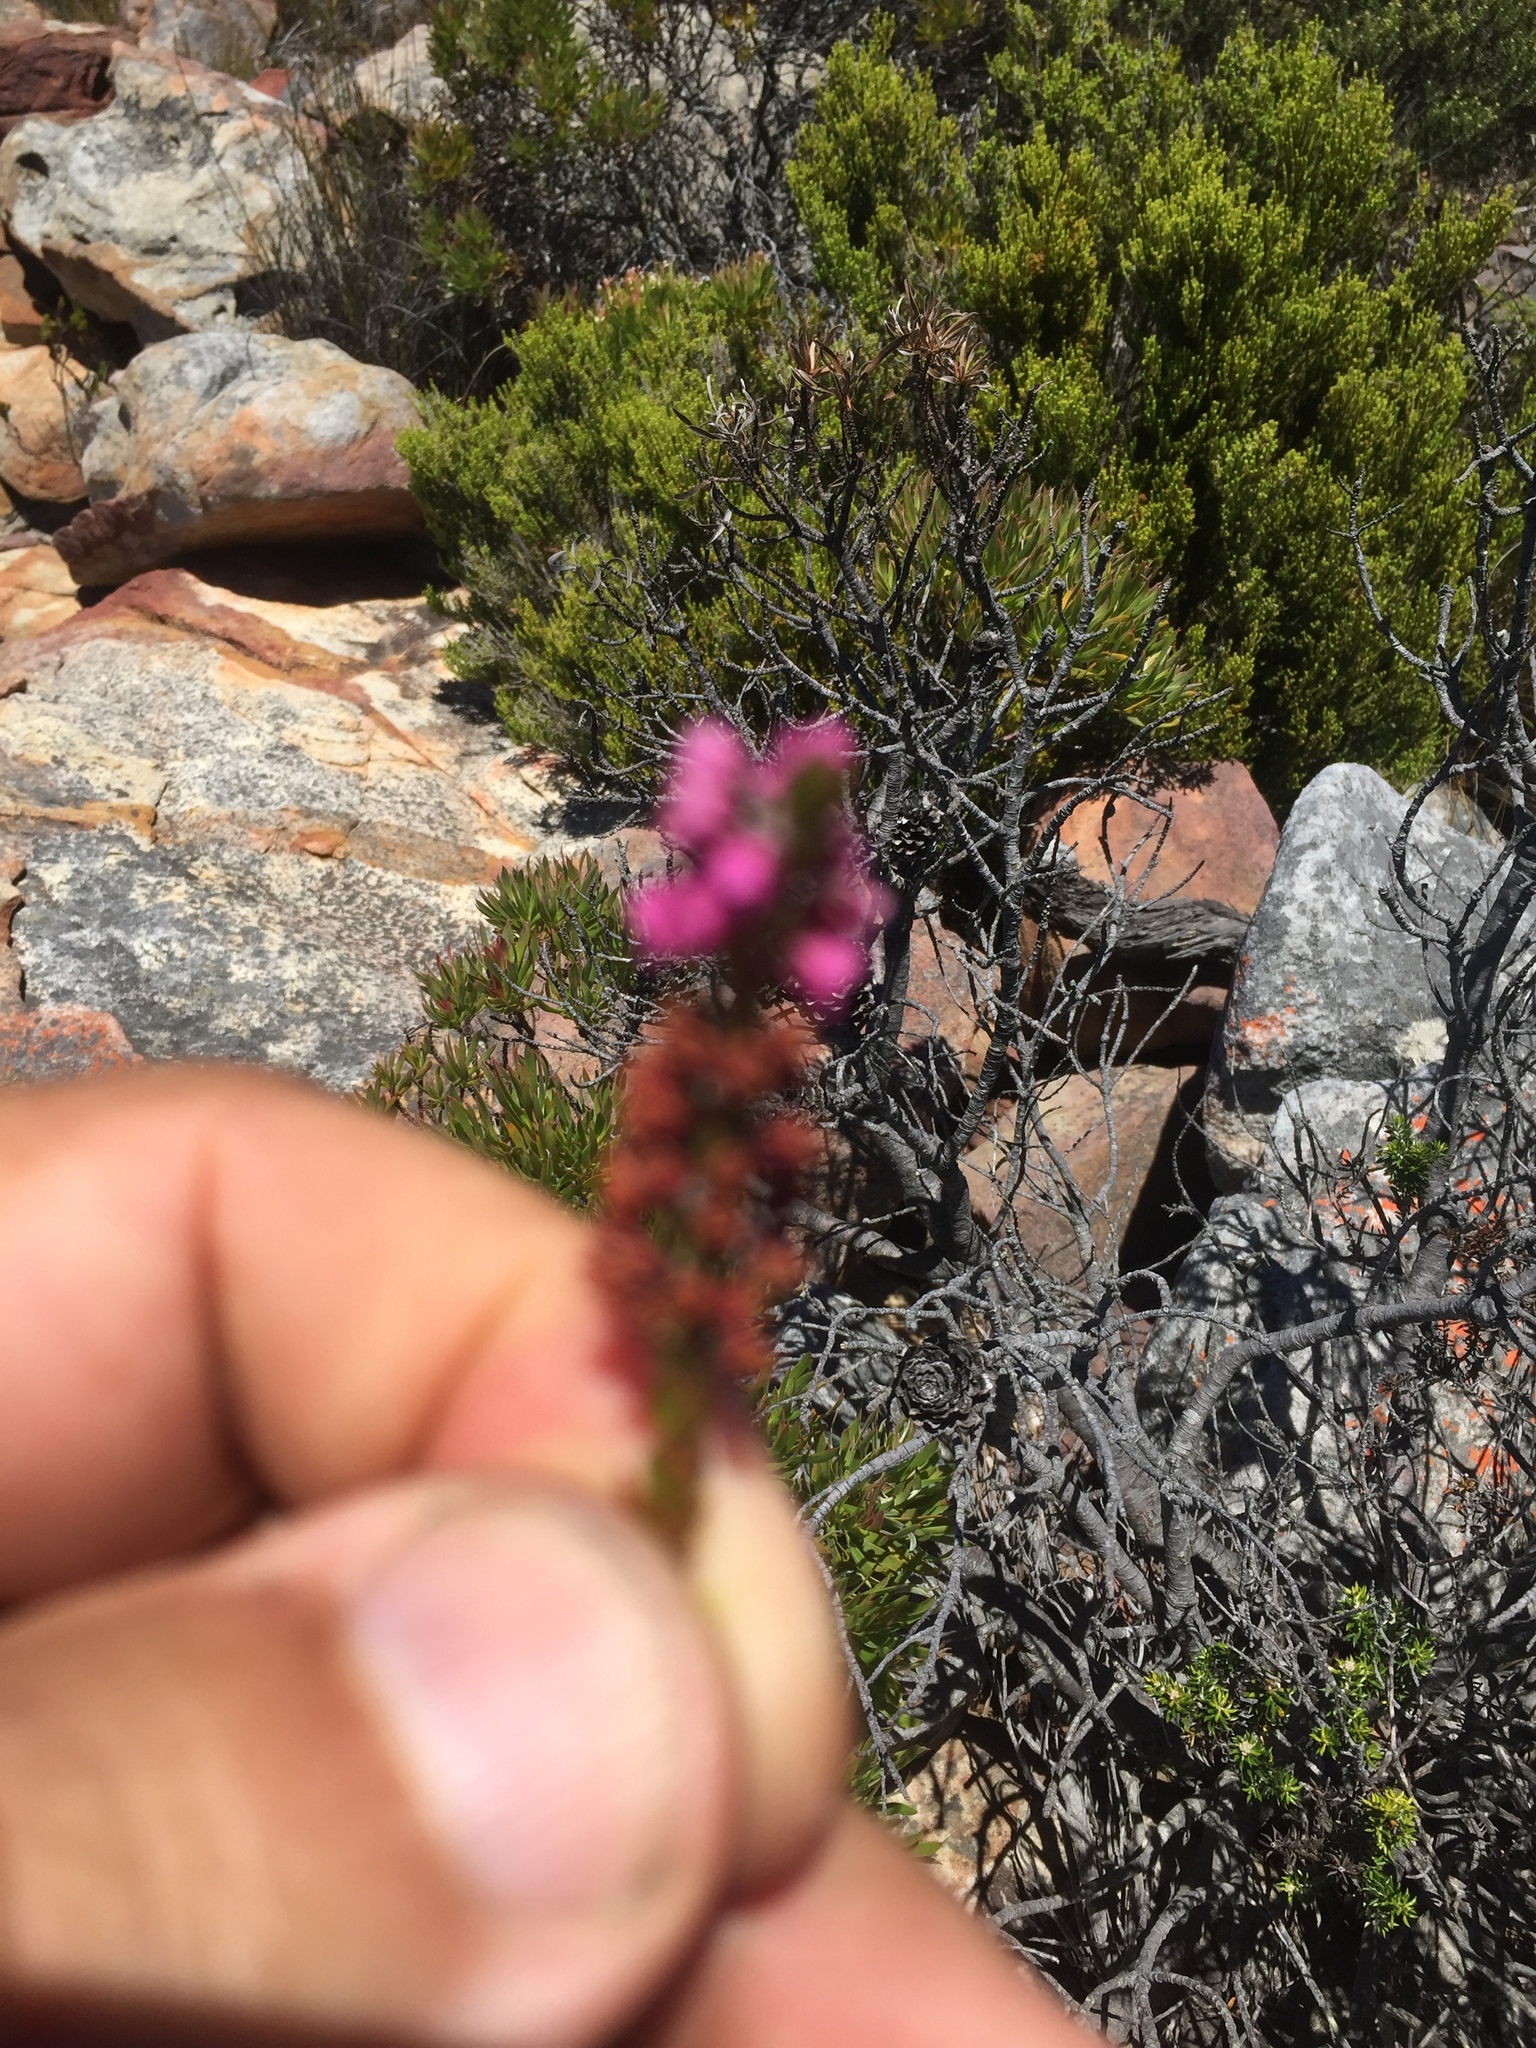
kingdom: Plantae
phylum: Tracheophyta
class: Magnoliopsida
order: Ericales
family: Ericaceae
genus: Erica
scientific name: Erica pulchella
